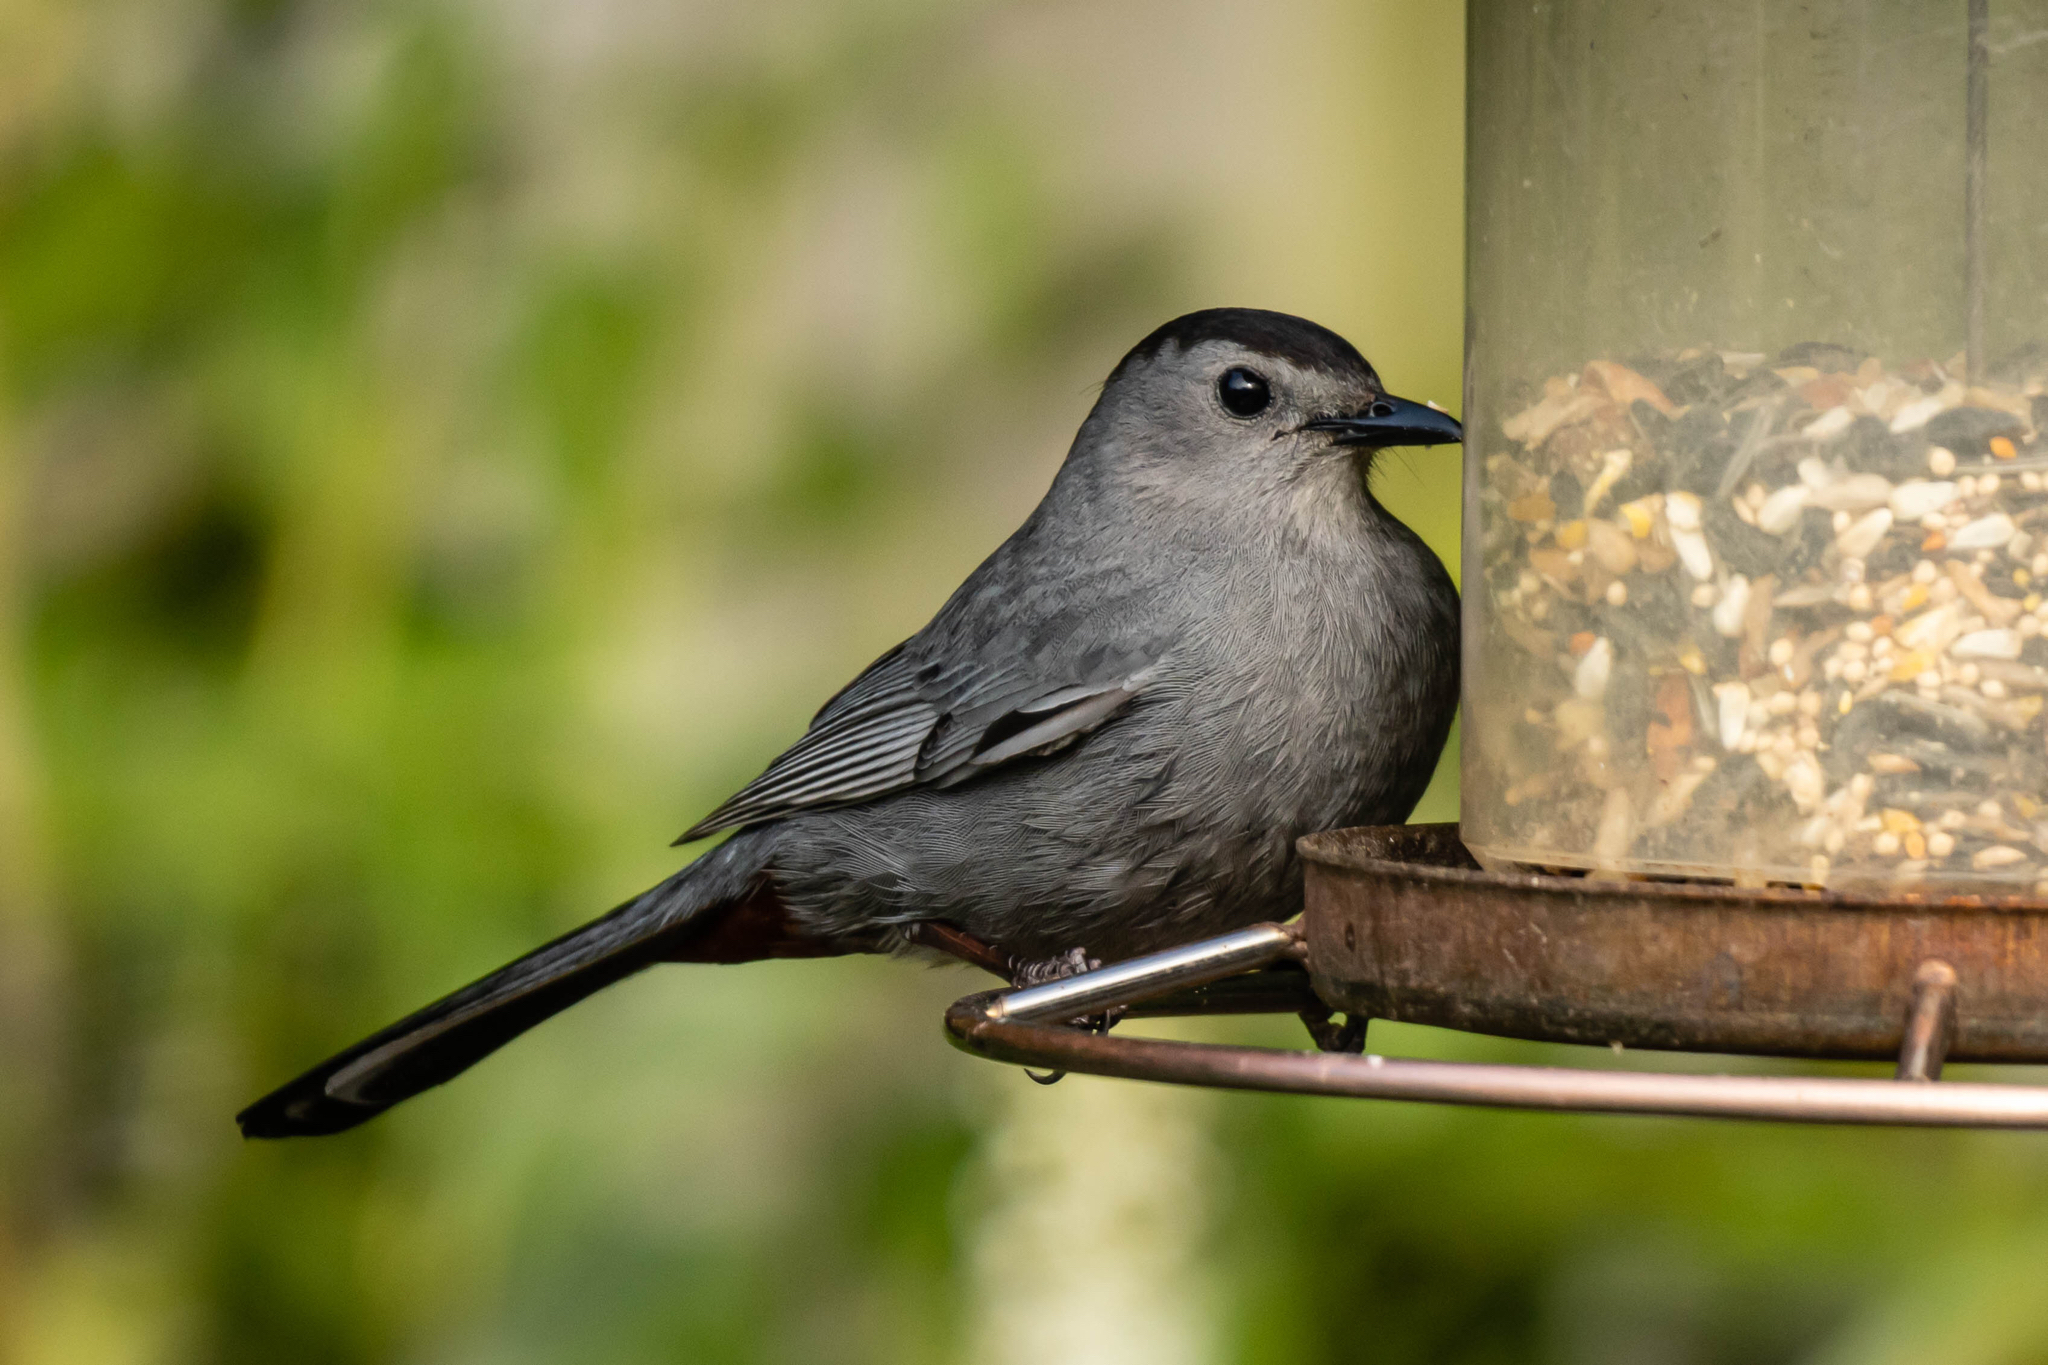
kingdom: Animalia
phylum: Chordata
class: Aves
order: Passeriformes
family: Mimidae
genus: Dumetella
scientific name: Dumetella carolinensis
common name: Gray catbird
